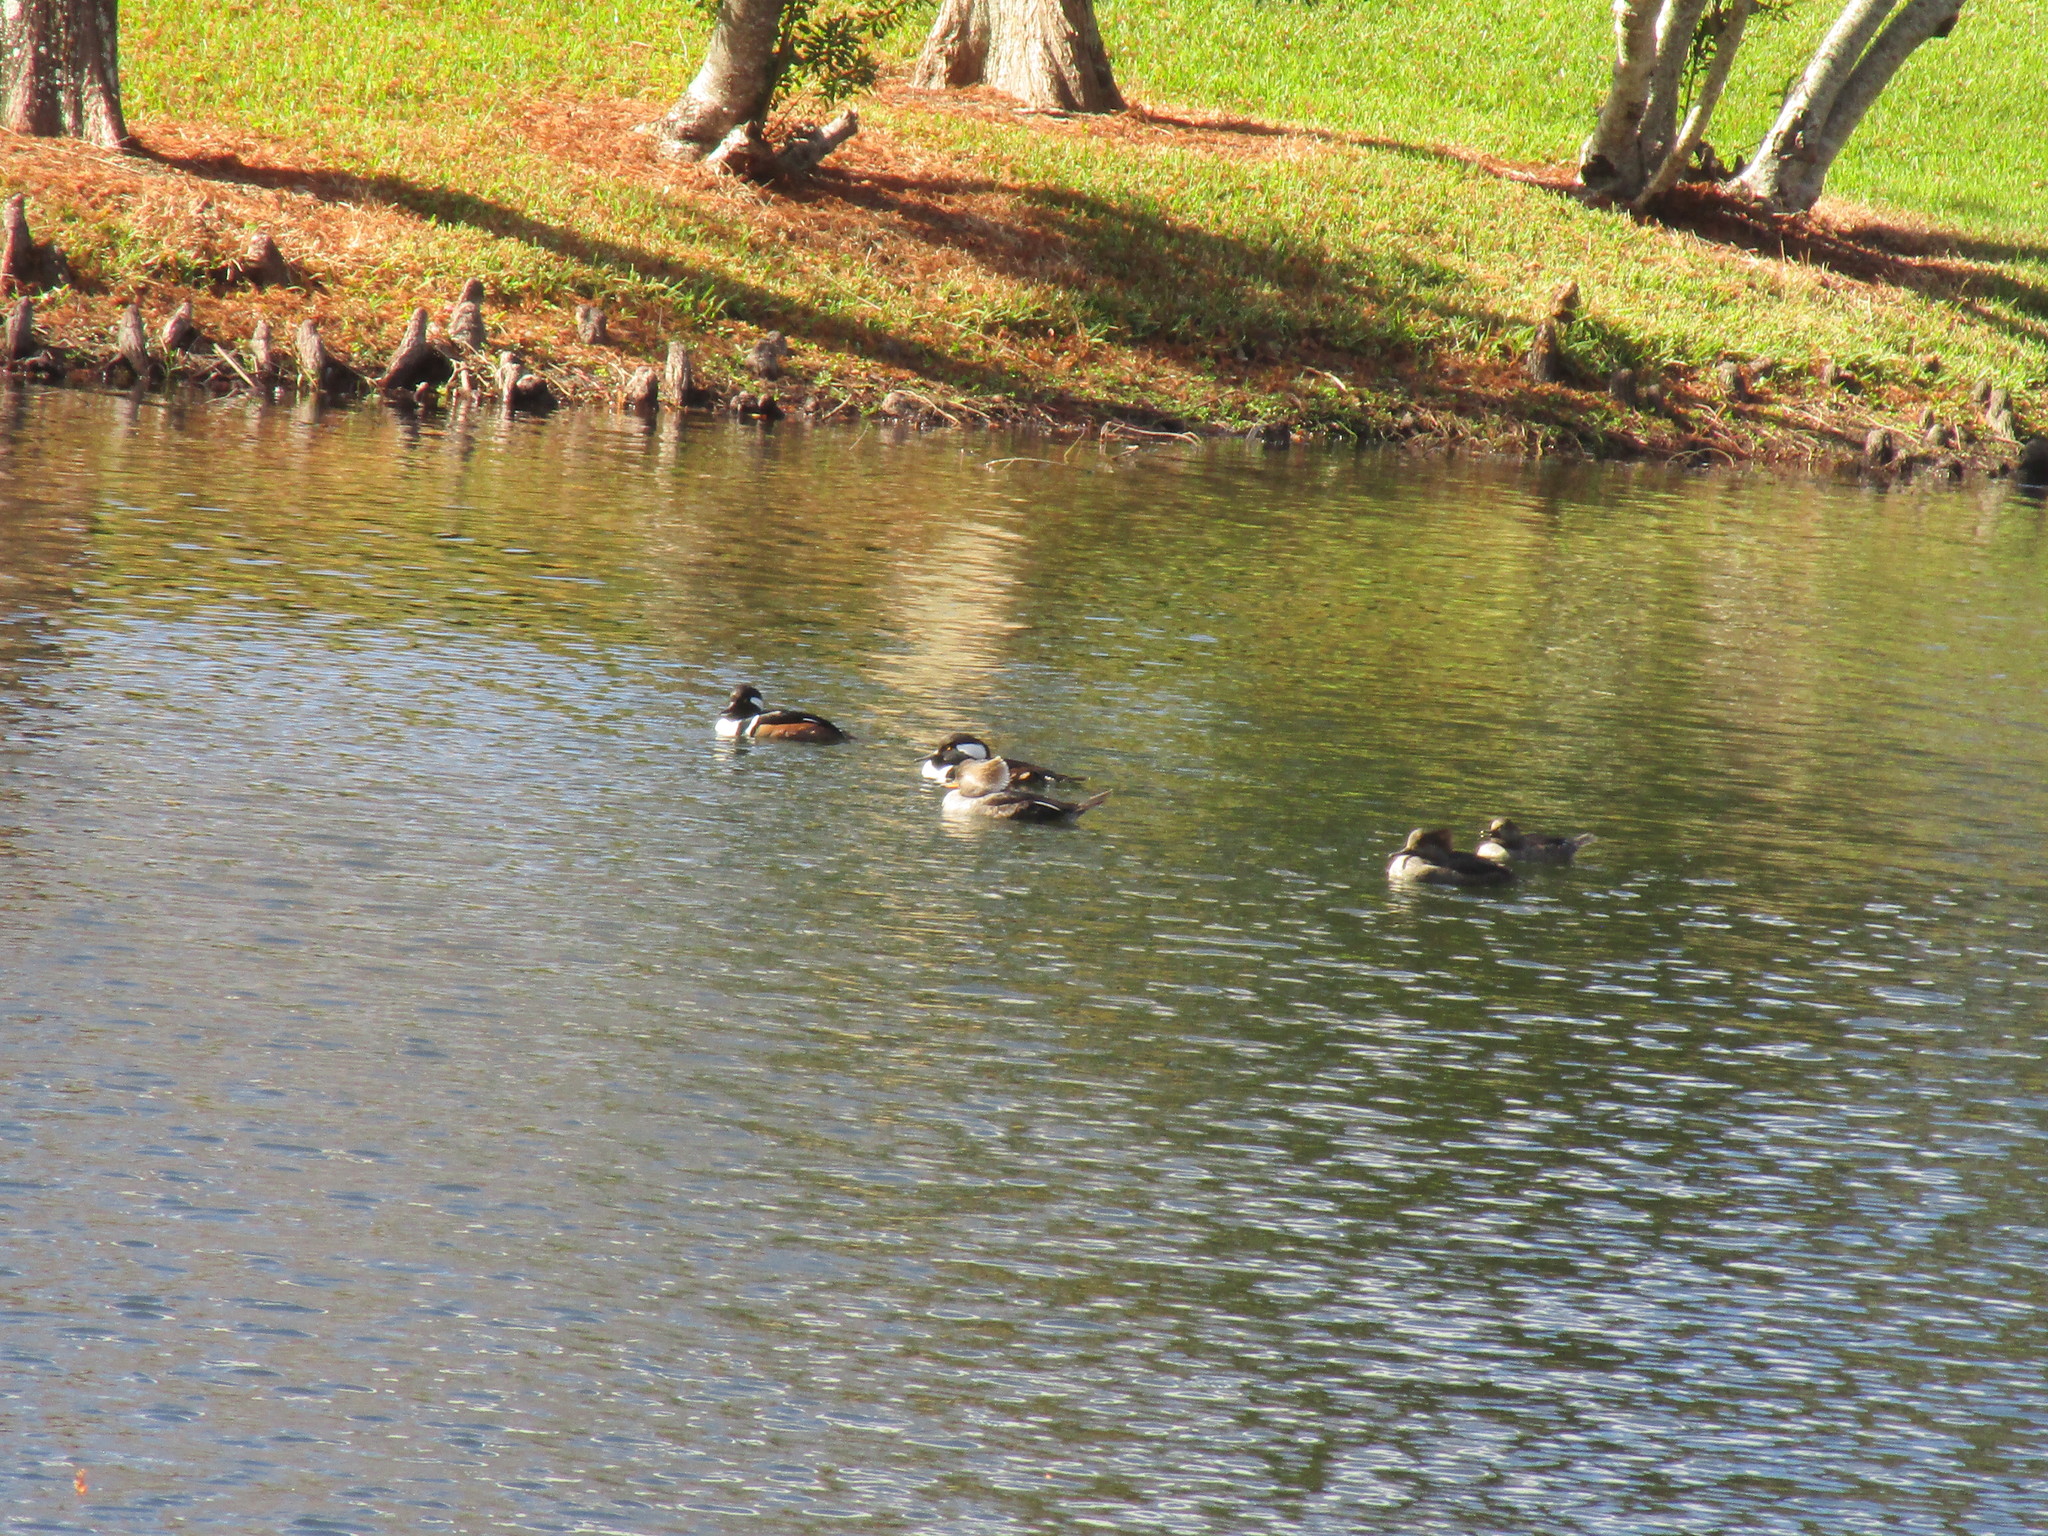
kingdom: Animalia
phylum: Chordata
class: Aves
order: Anseriformes
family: Anatidae
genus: Lophodytes
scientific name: Lophodytes cucullatus
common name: Hooded merganser
